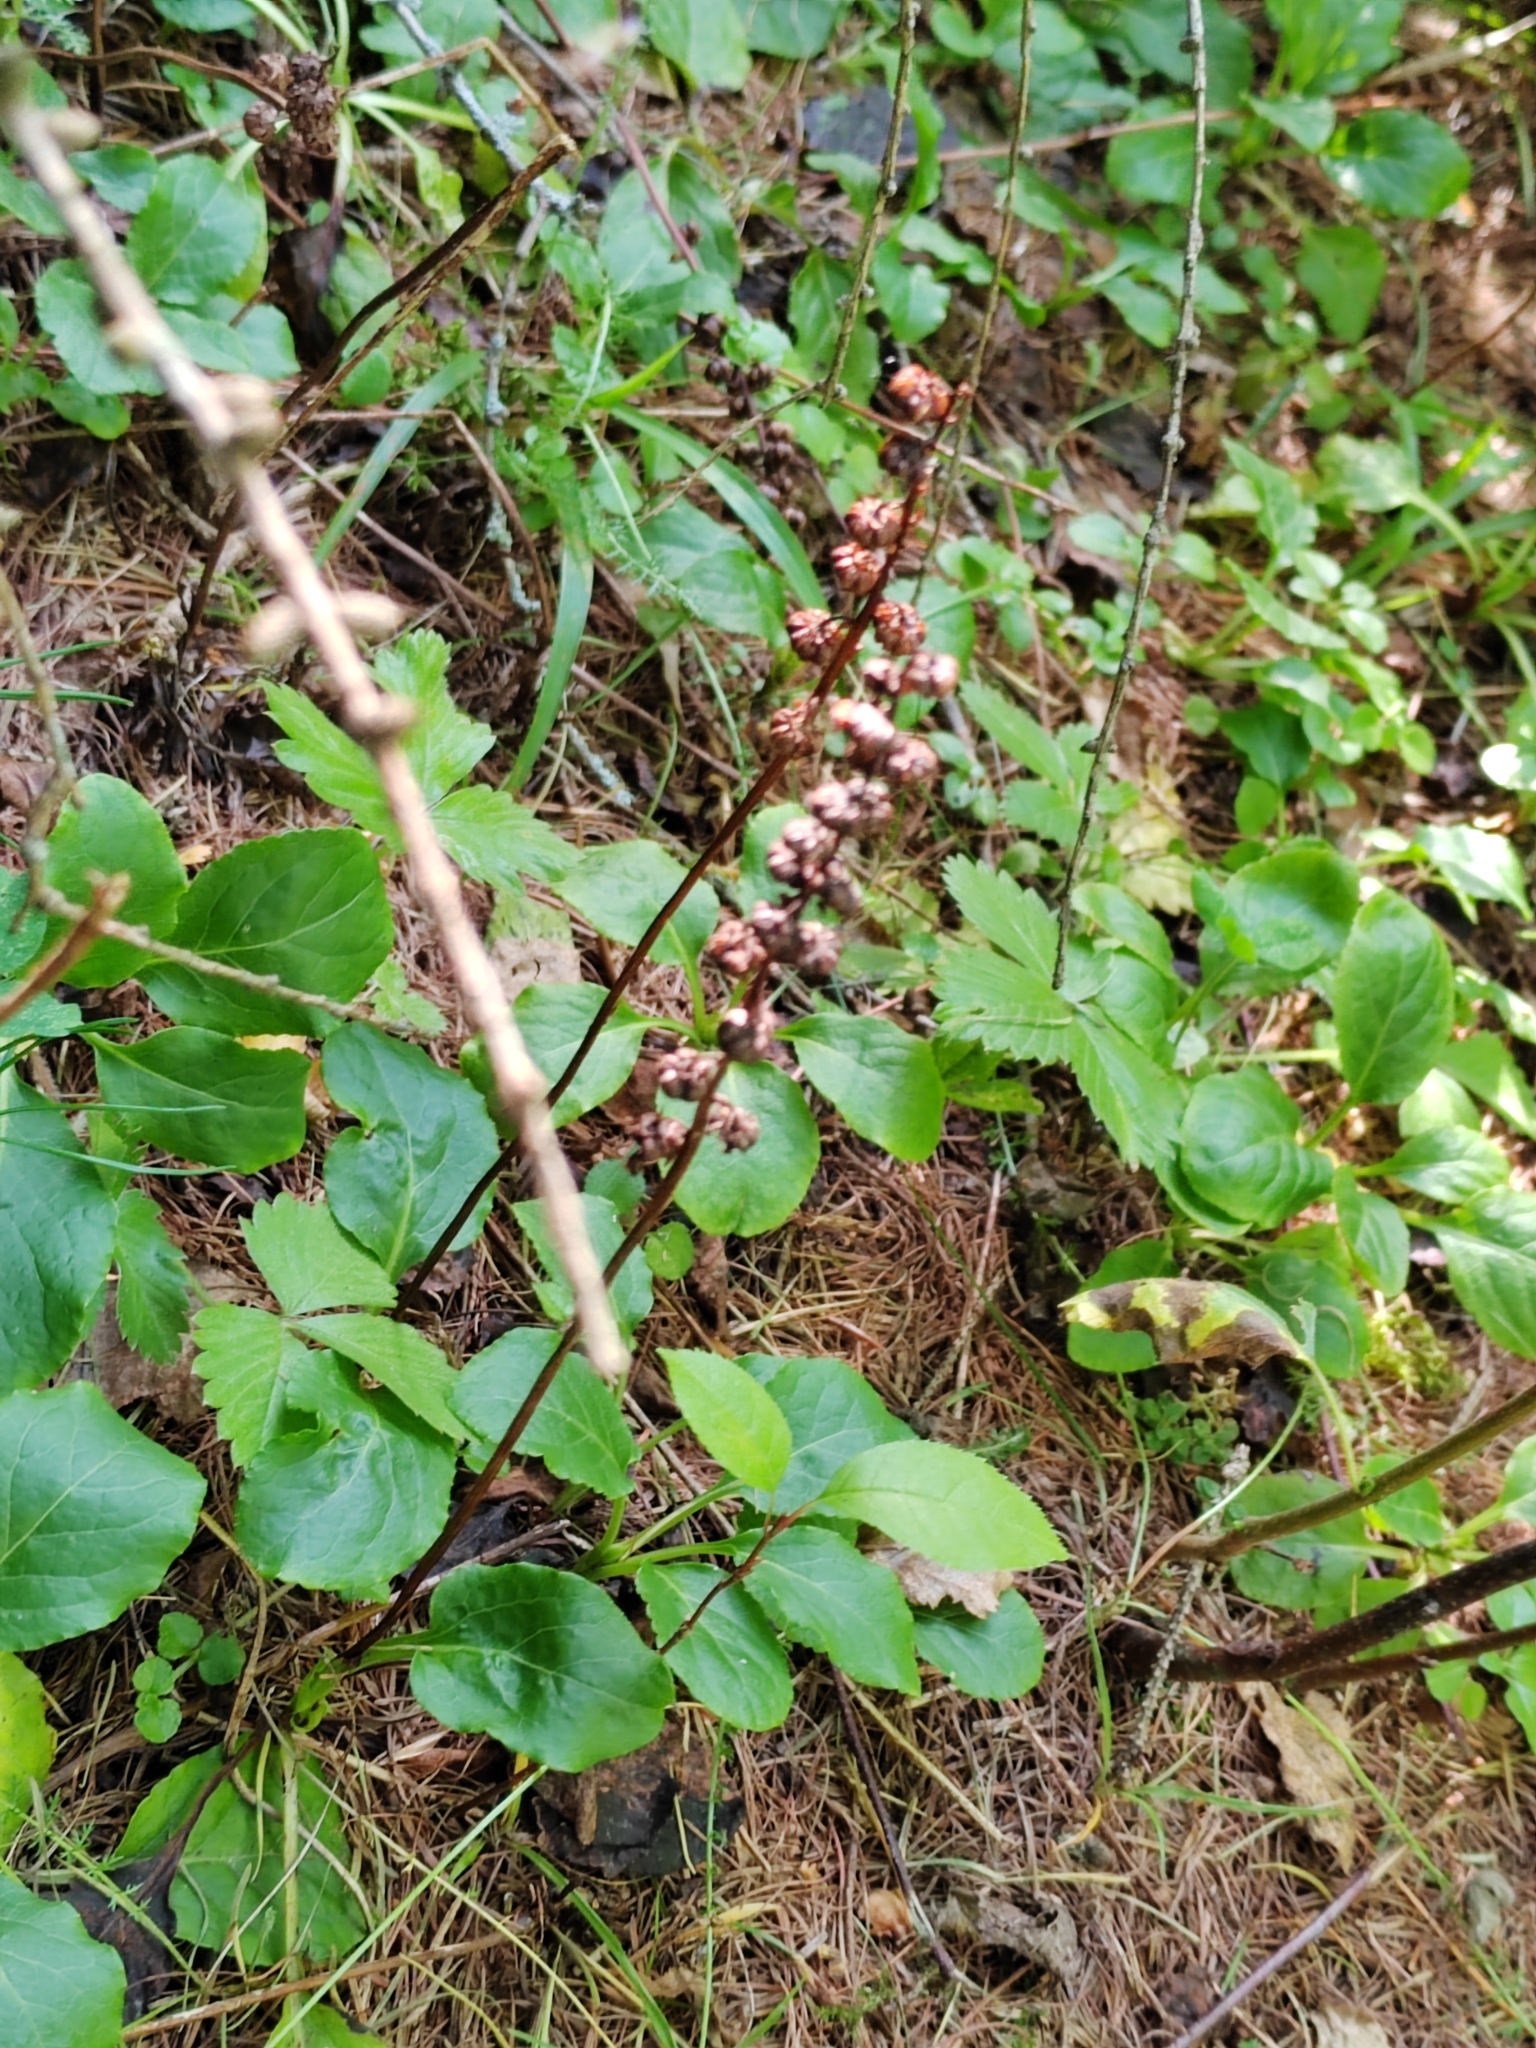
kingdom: Plantae
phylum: Tracheophyta
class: Magnoliopsida
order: Ericales
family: Ericaceae
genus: Pyrola
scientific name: Pyrola minor
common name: Common wintergreen
